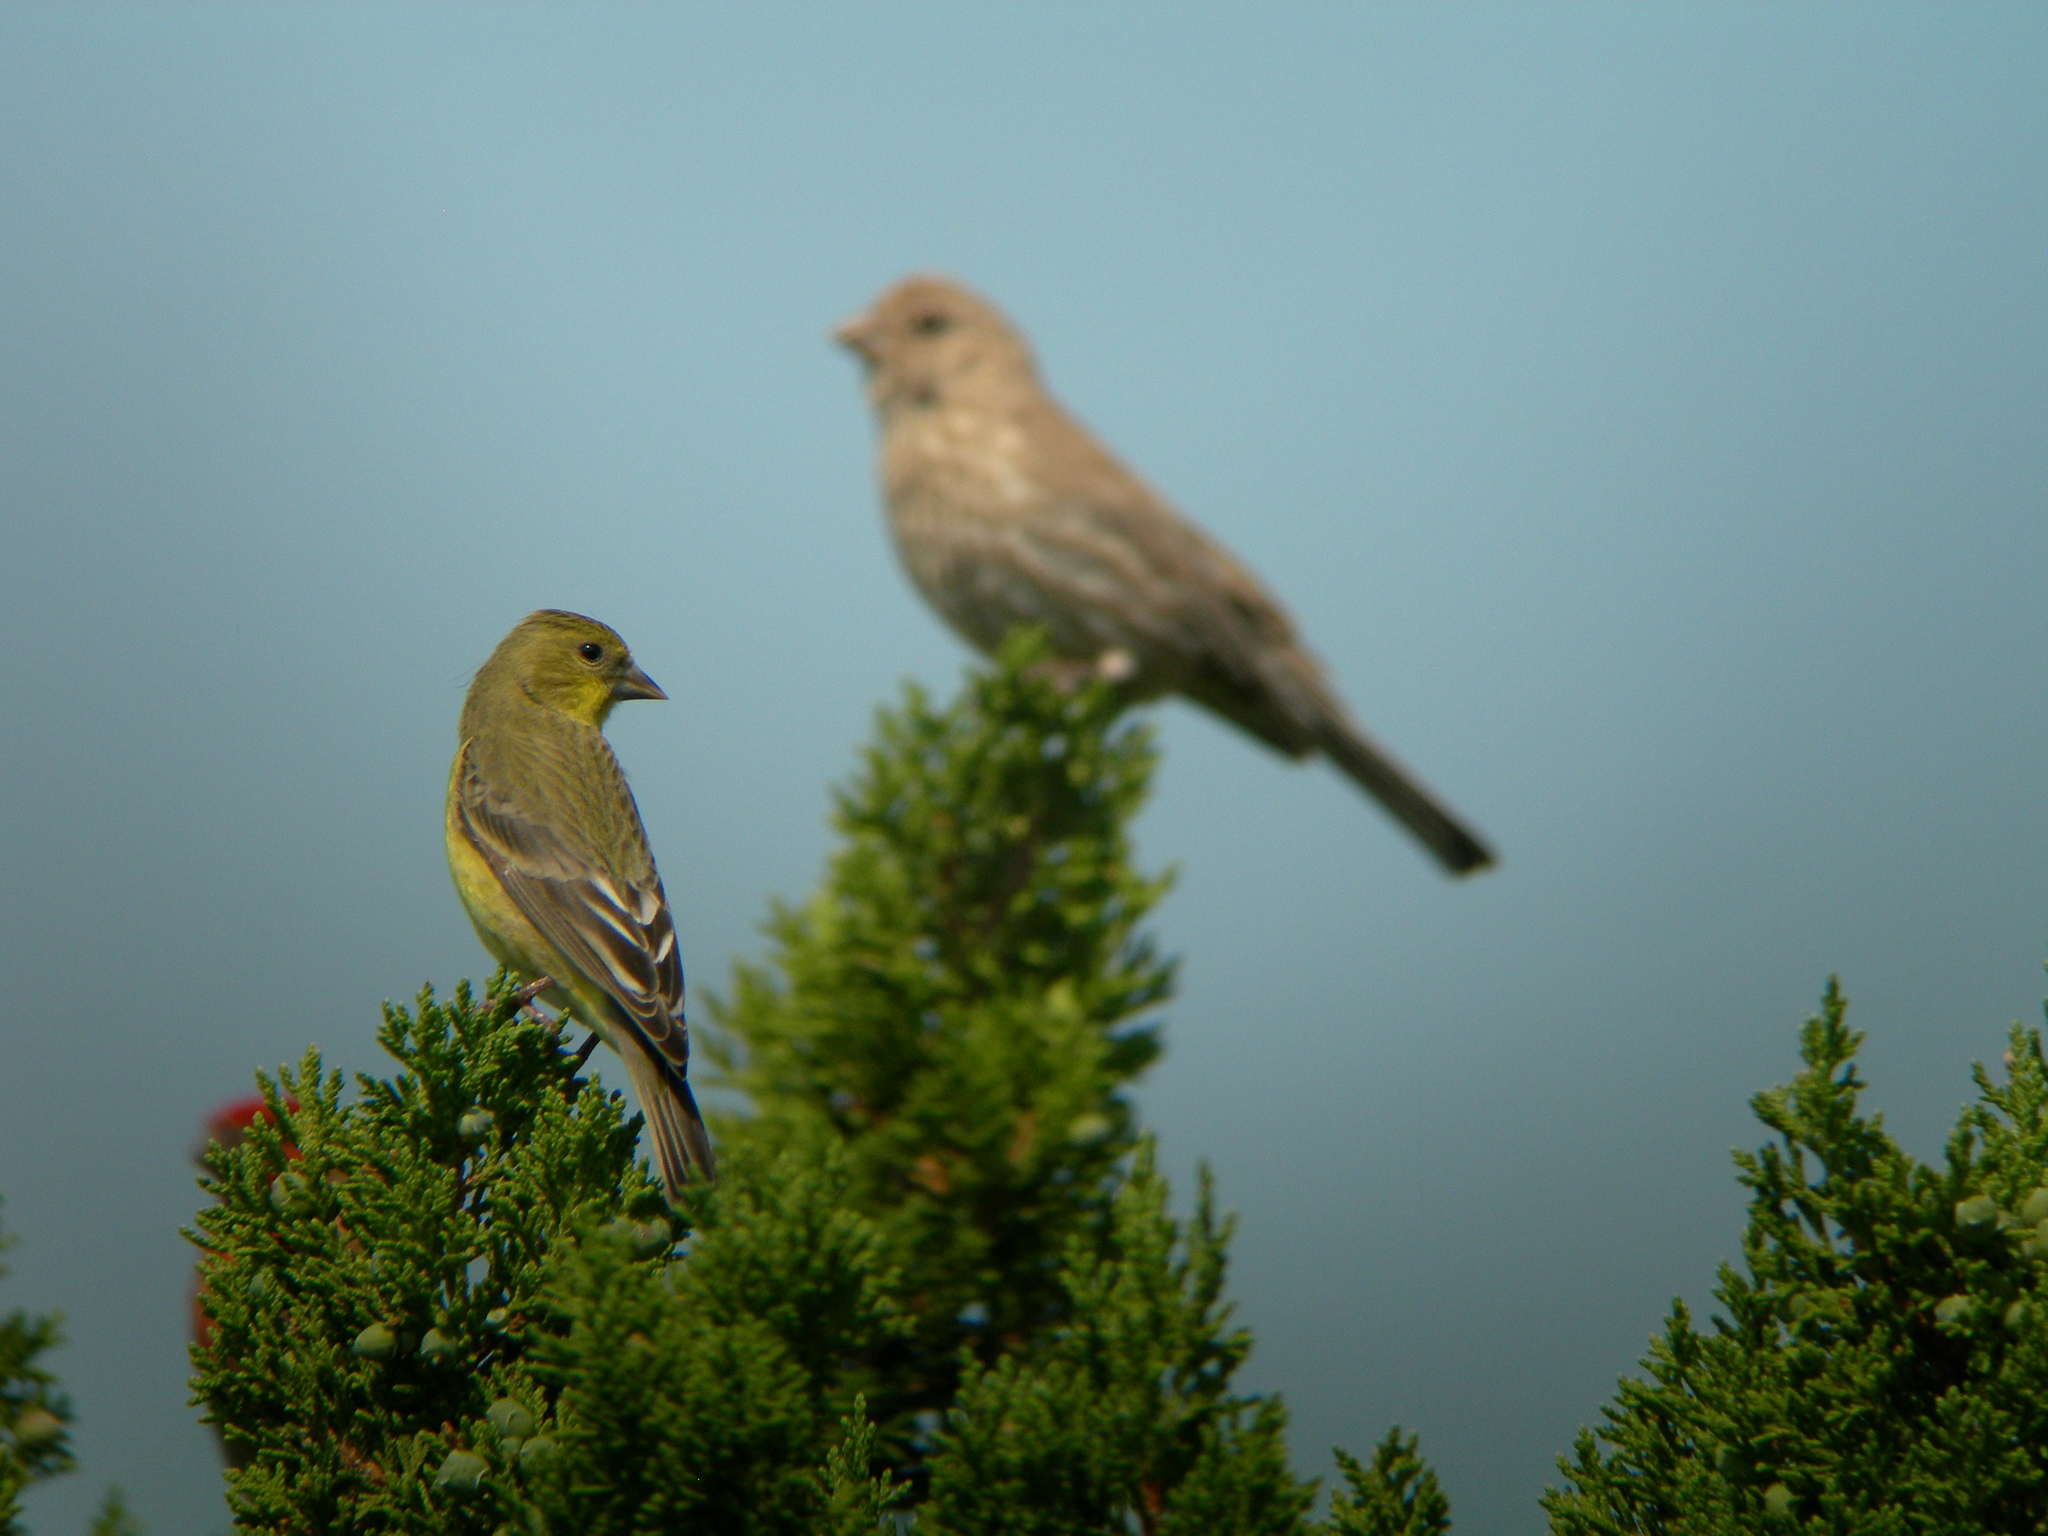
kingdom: Animalia
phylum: Chordata
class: Aves
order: Passeriformes
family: Fringillidae
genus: Spinus
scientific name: Spinus psaltria
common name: Lesser goldfinch
